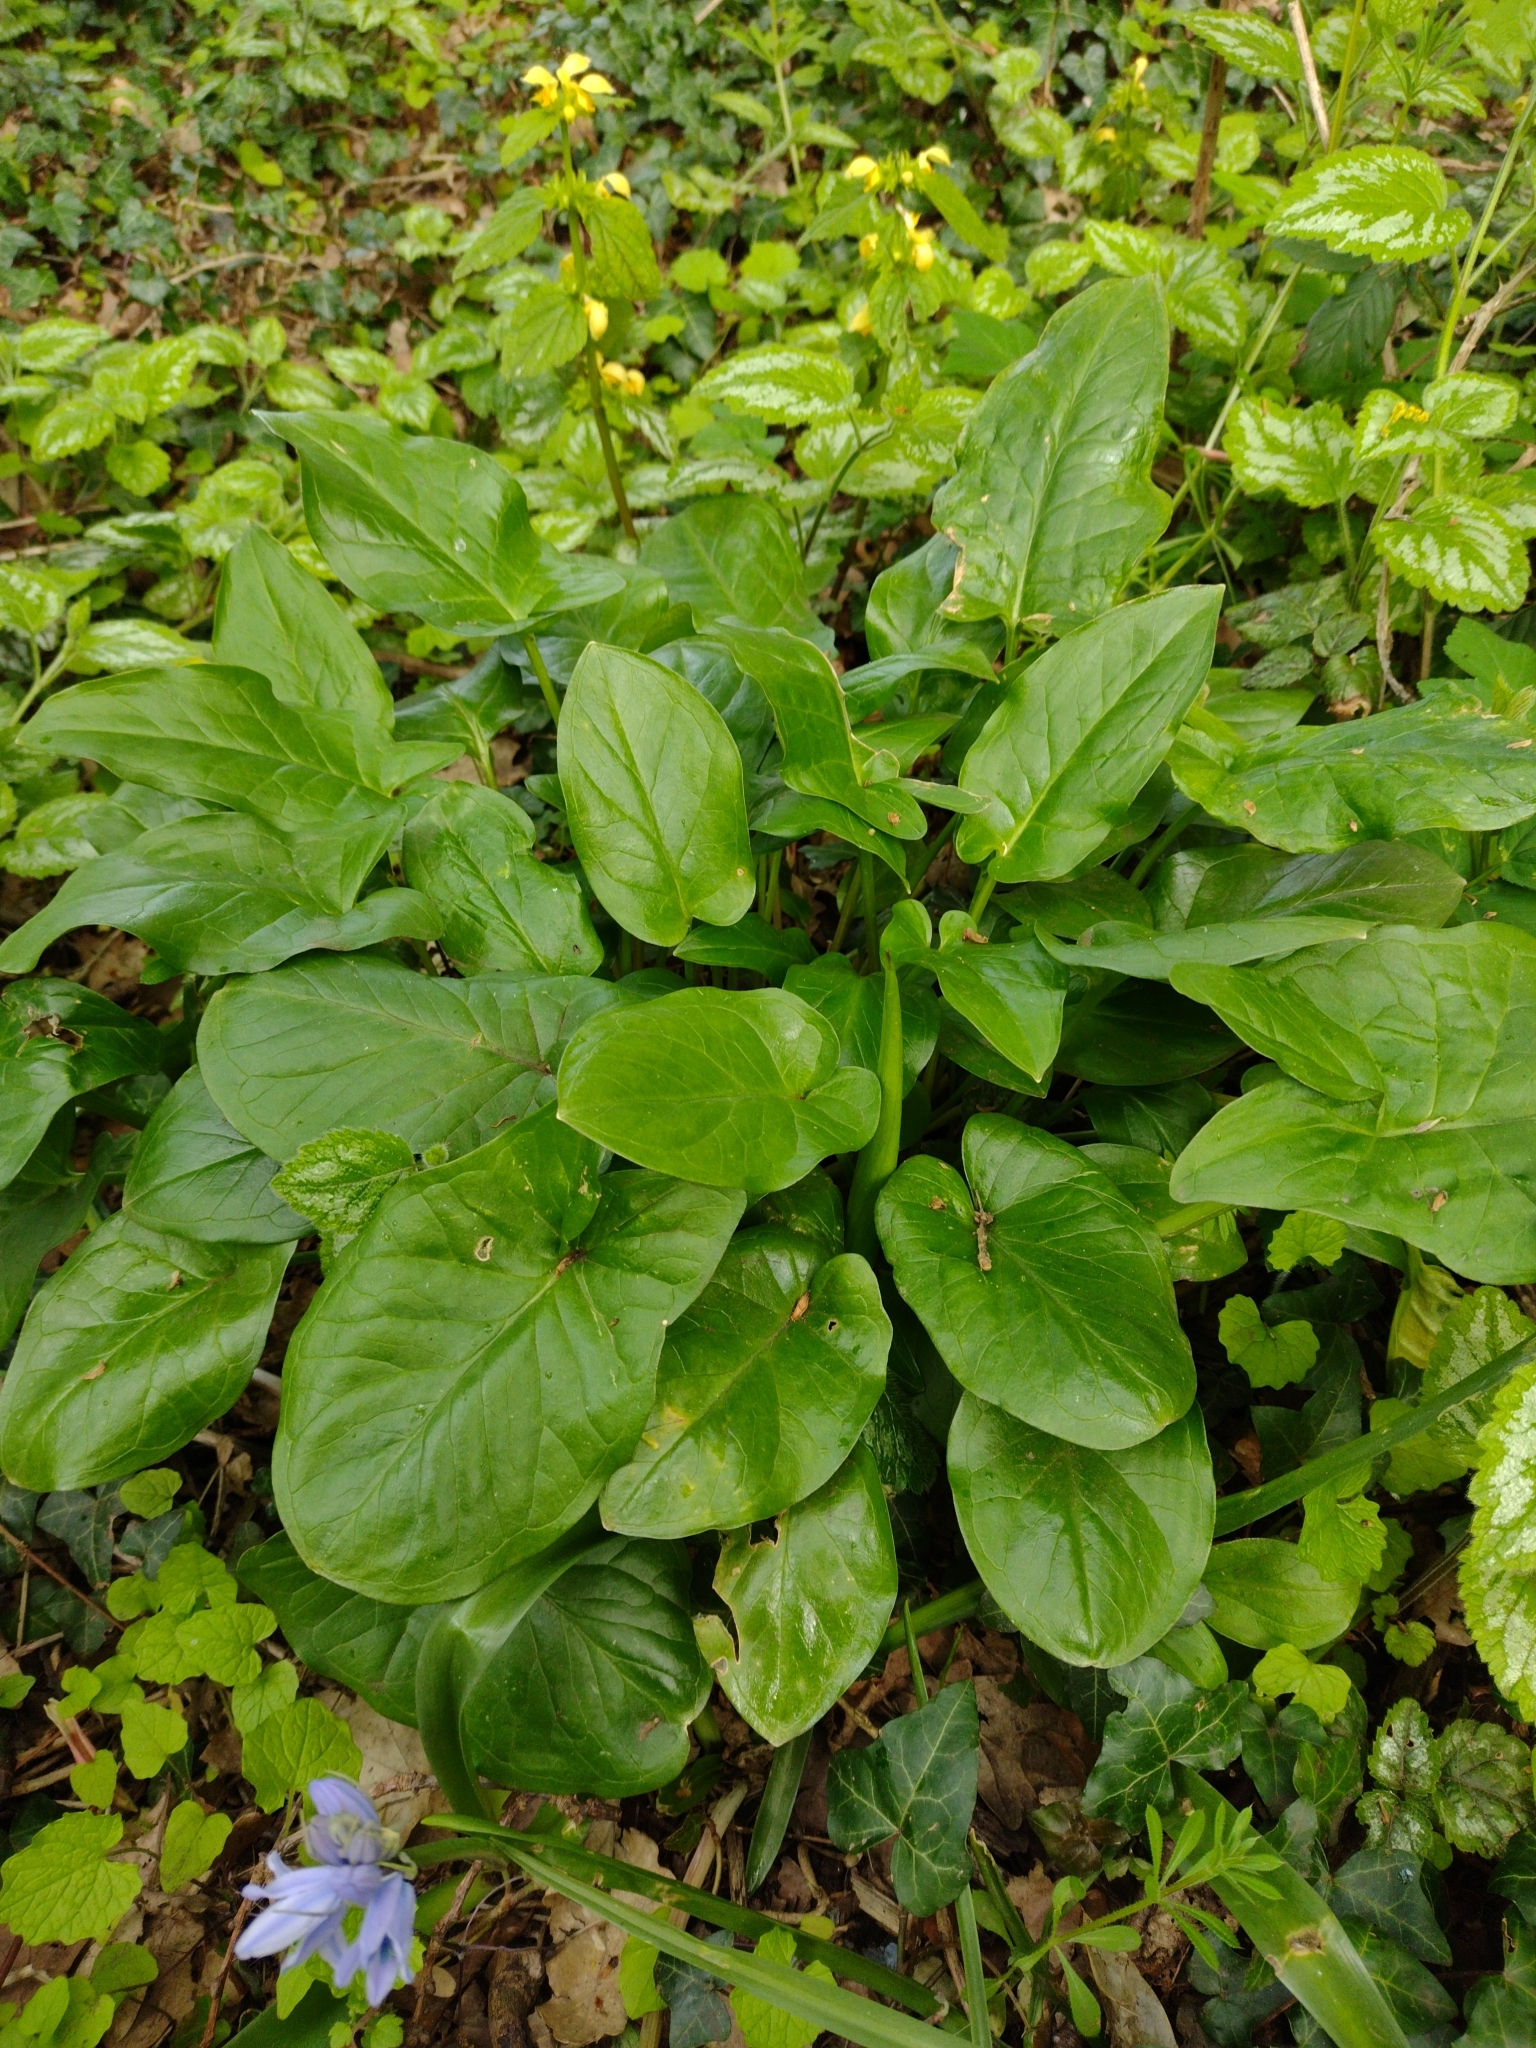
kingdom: Plantae
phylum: Tracheophyta
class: Liliopsida
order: Alismatales
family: Araceae
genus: Arum
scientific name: Arum maculatum
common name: Lords-and-ladies
